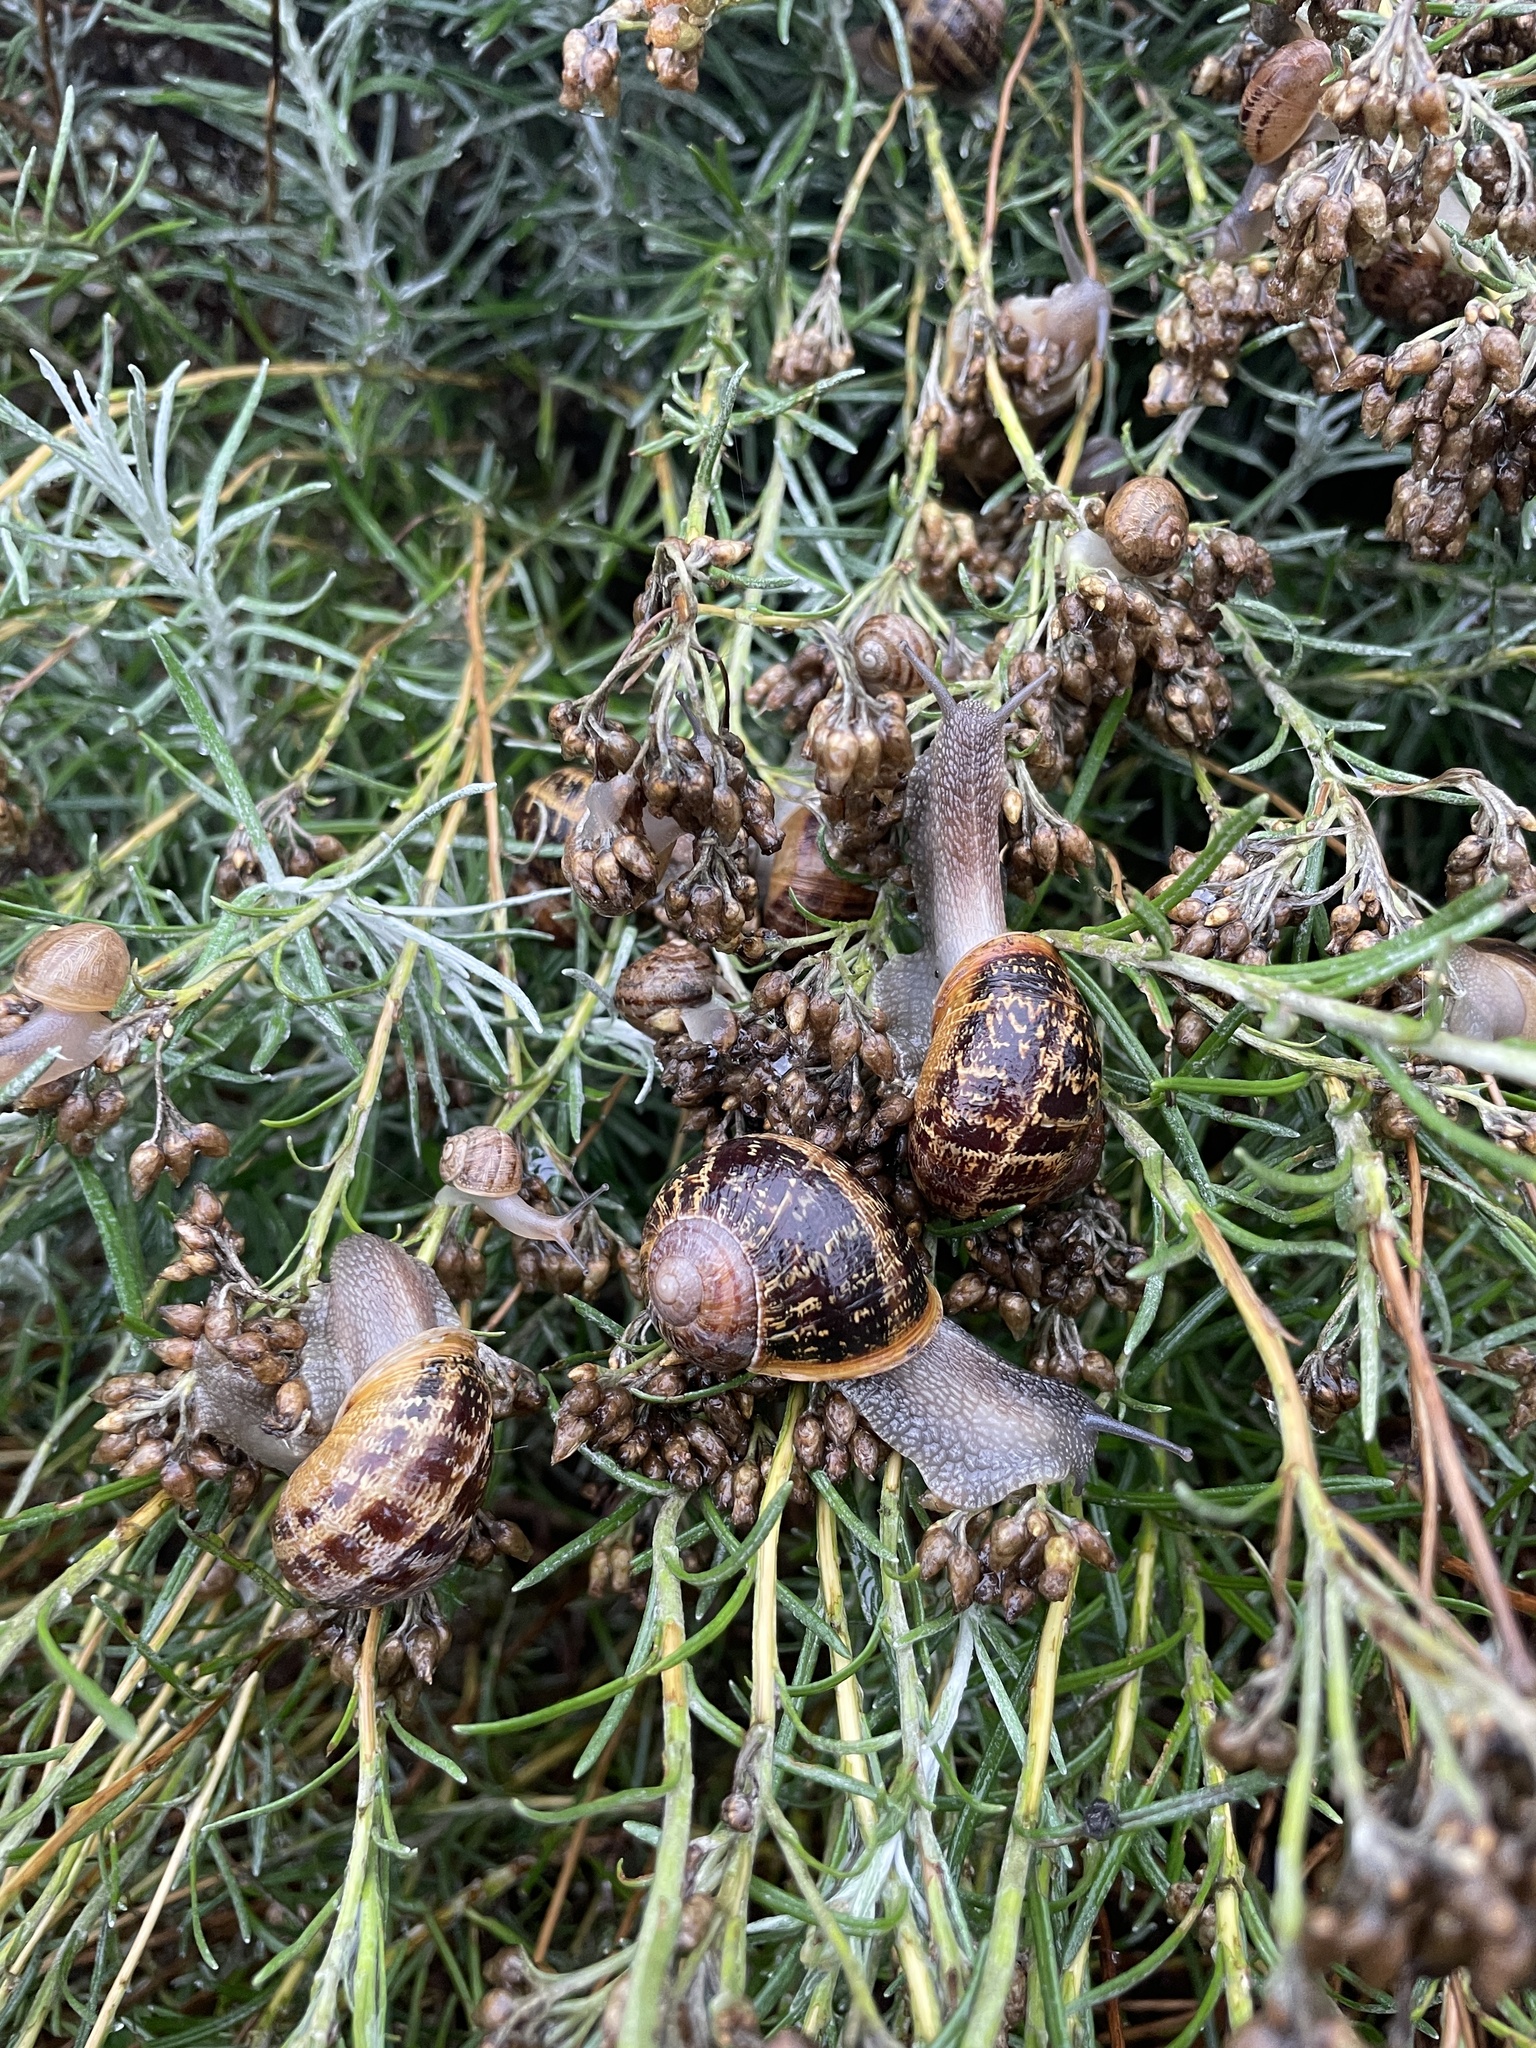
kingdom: Animalia
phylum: Mollusca
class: Gastropoda
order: Stylommatophora
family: Helicidae
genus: Cornu
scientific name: Cornu aspersum
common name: Brown garden snail
